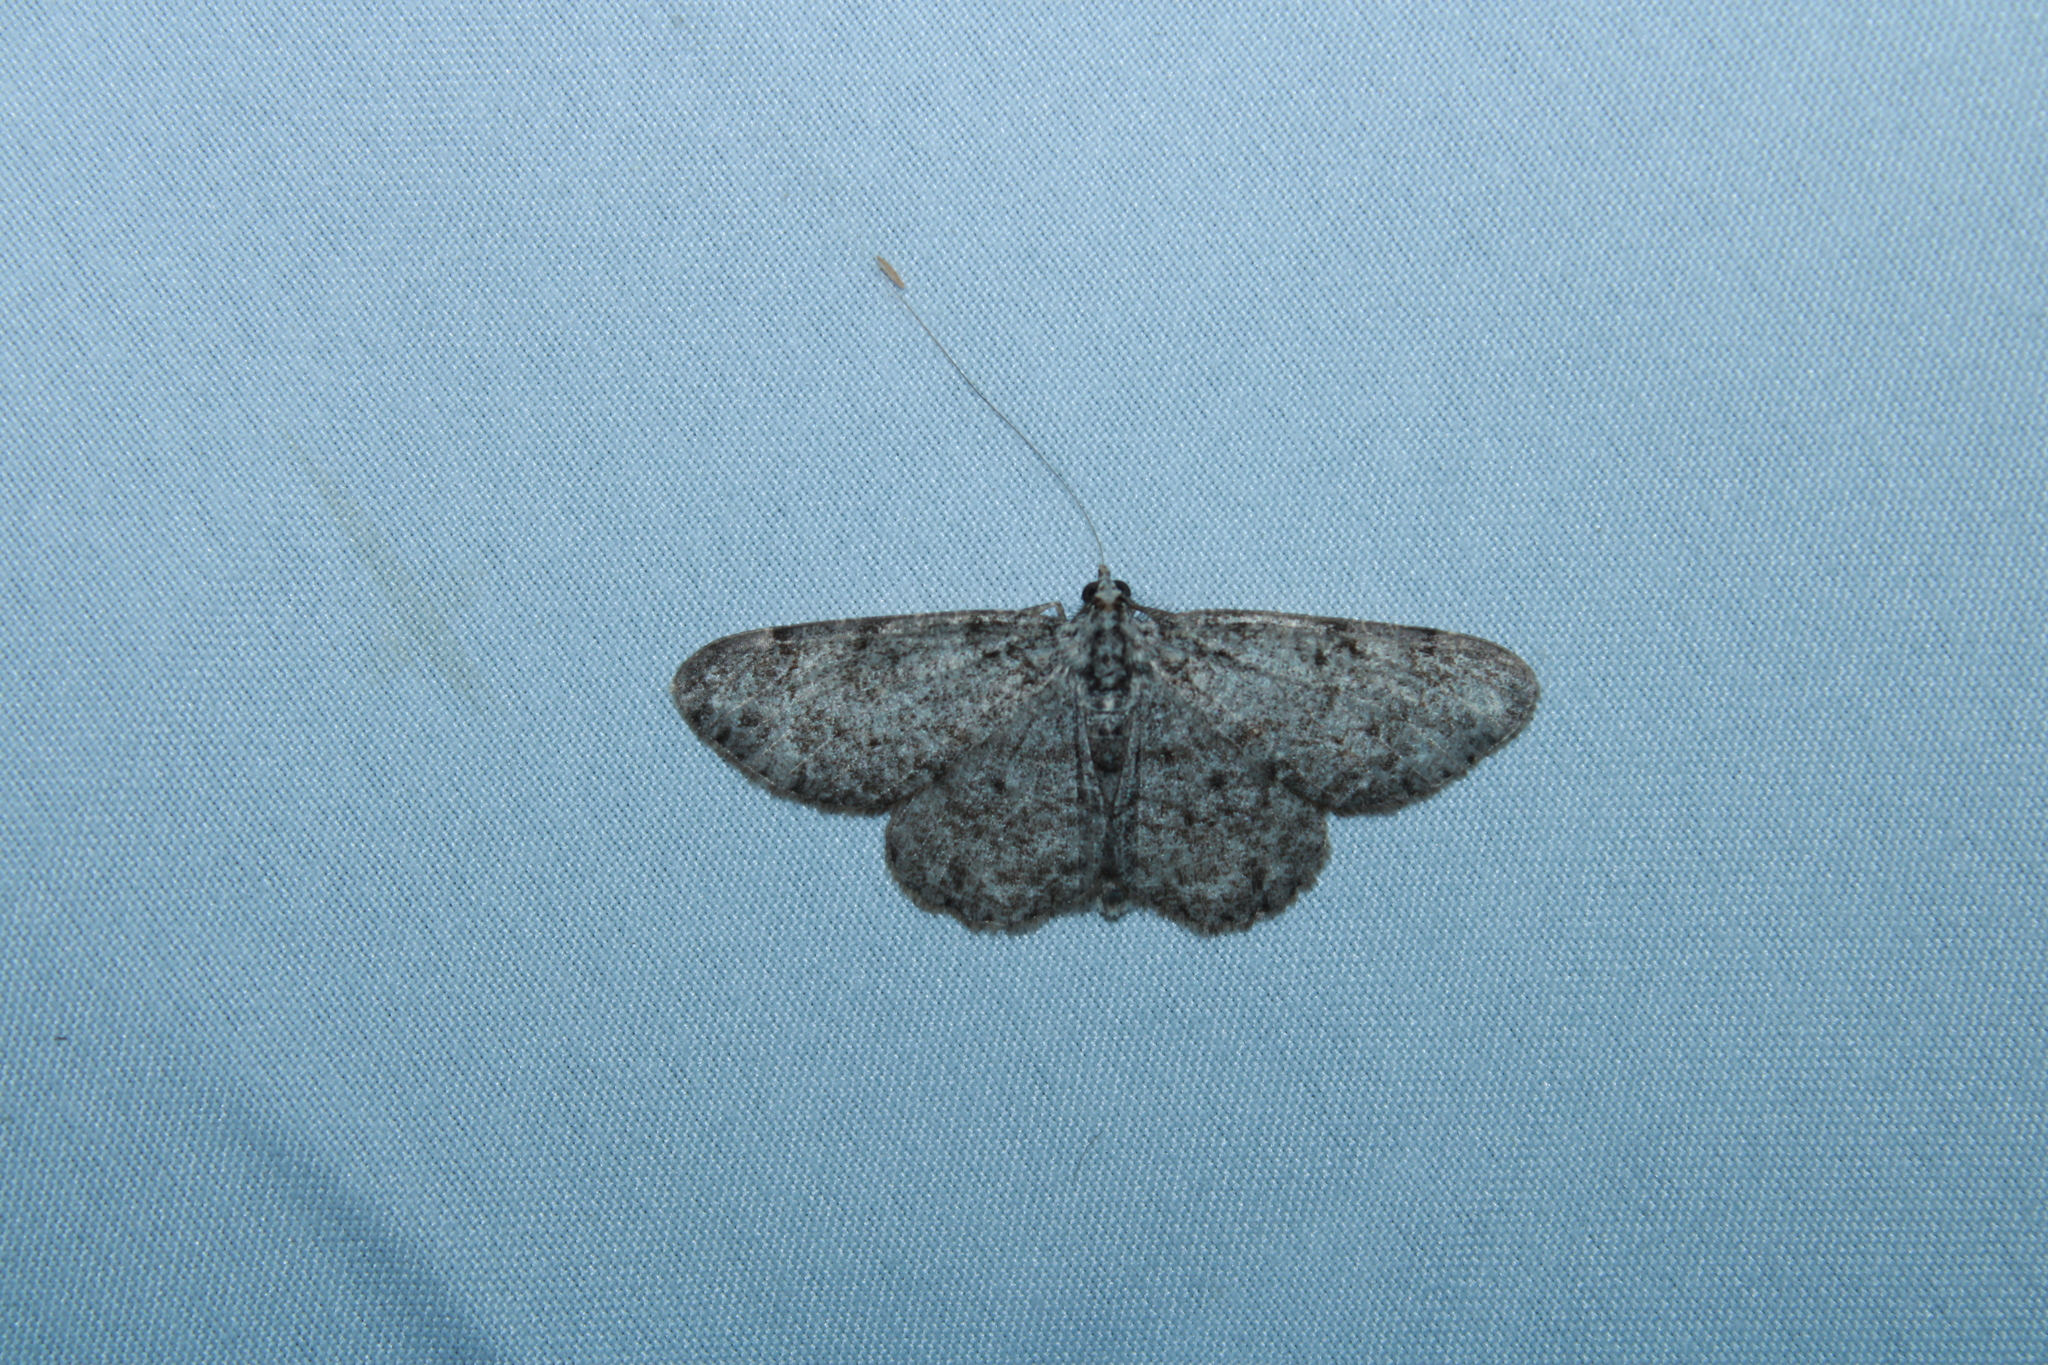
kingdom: Animalia
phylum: Arthropoda
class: Insecta
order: Lepidoptera
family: Geometridae
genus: Protoboarmia
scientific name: Protoboarmia porcelaria
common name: Porcelain gray
